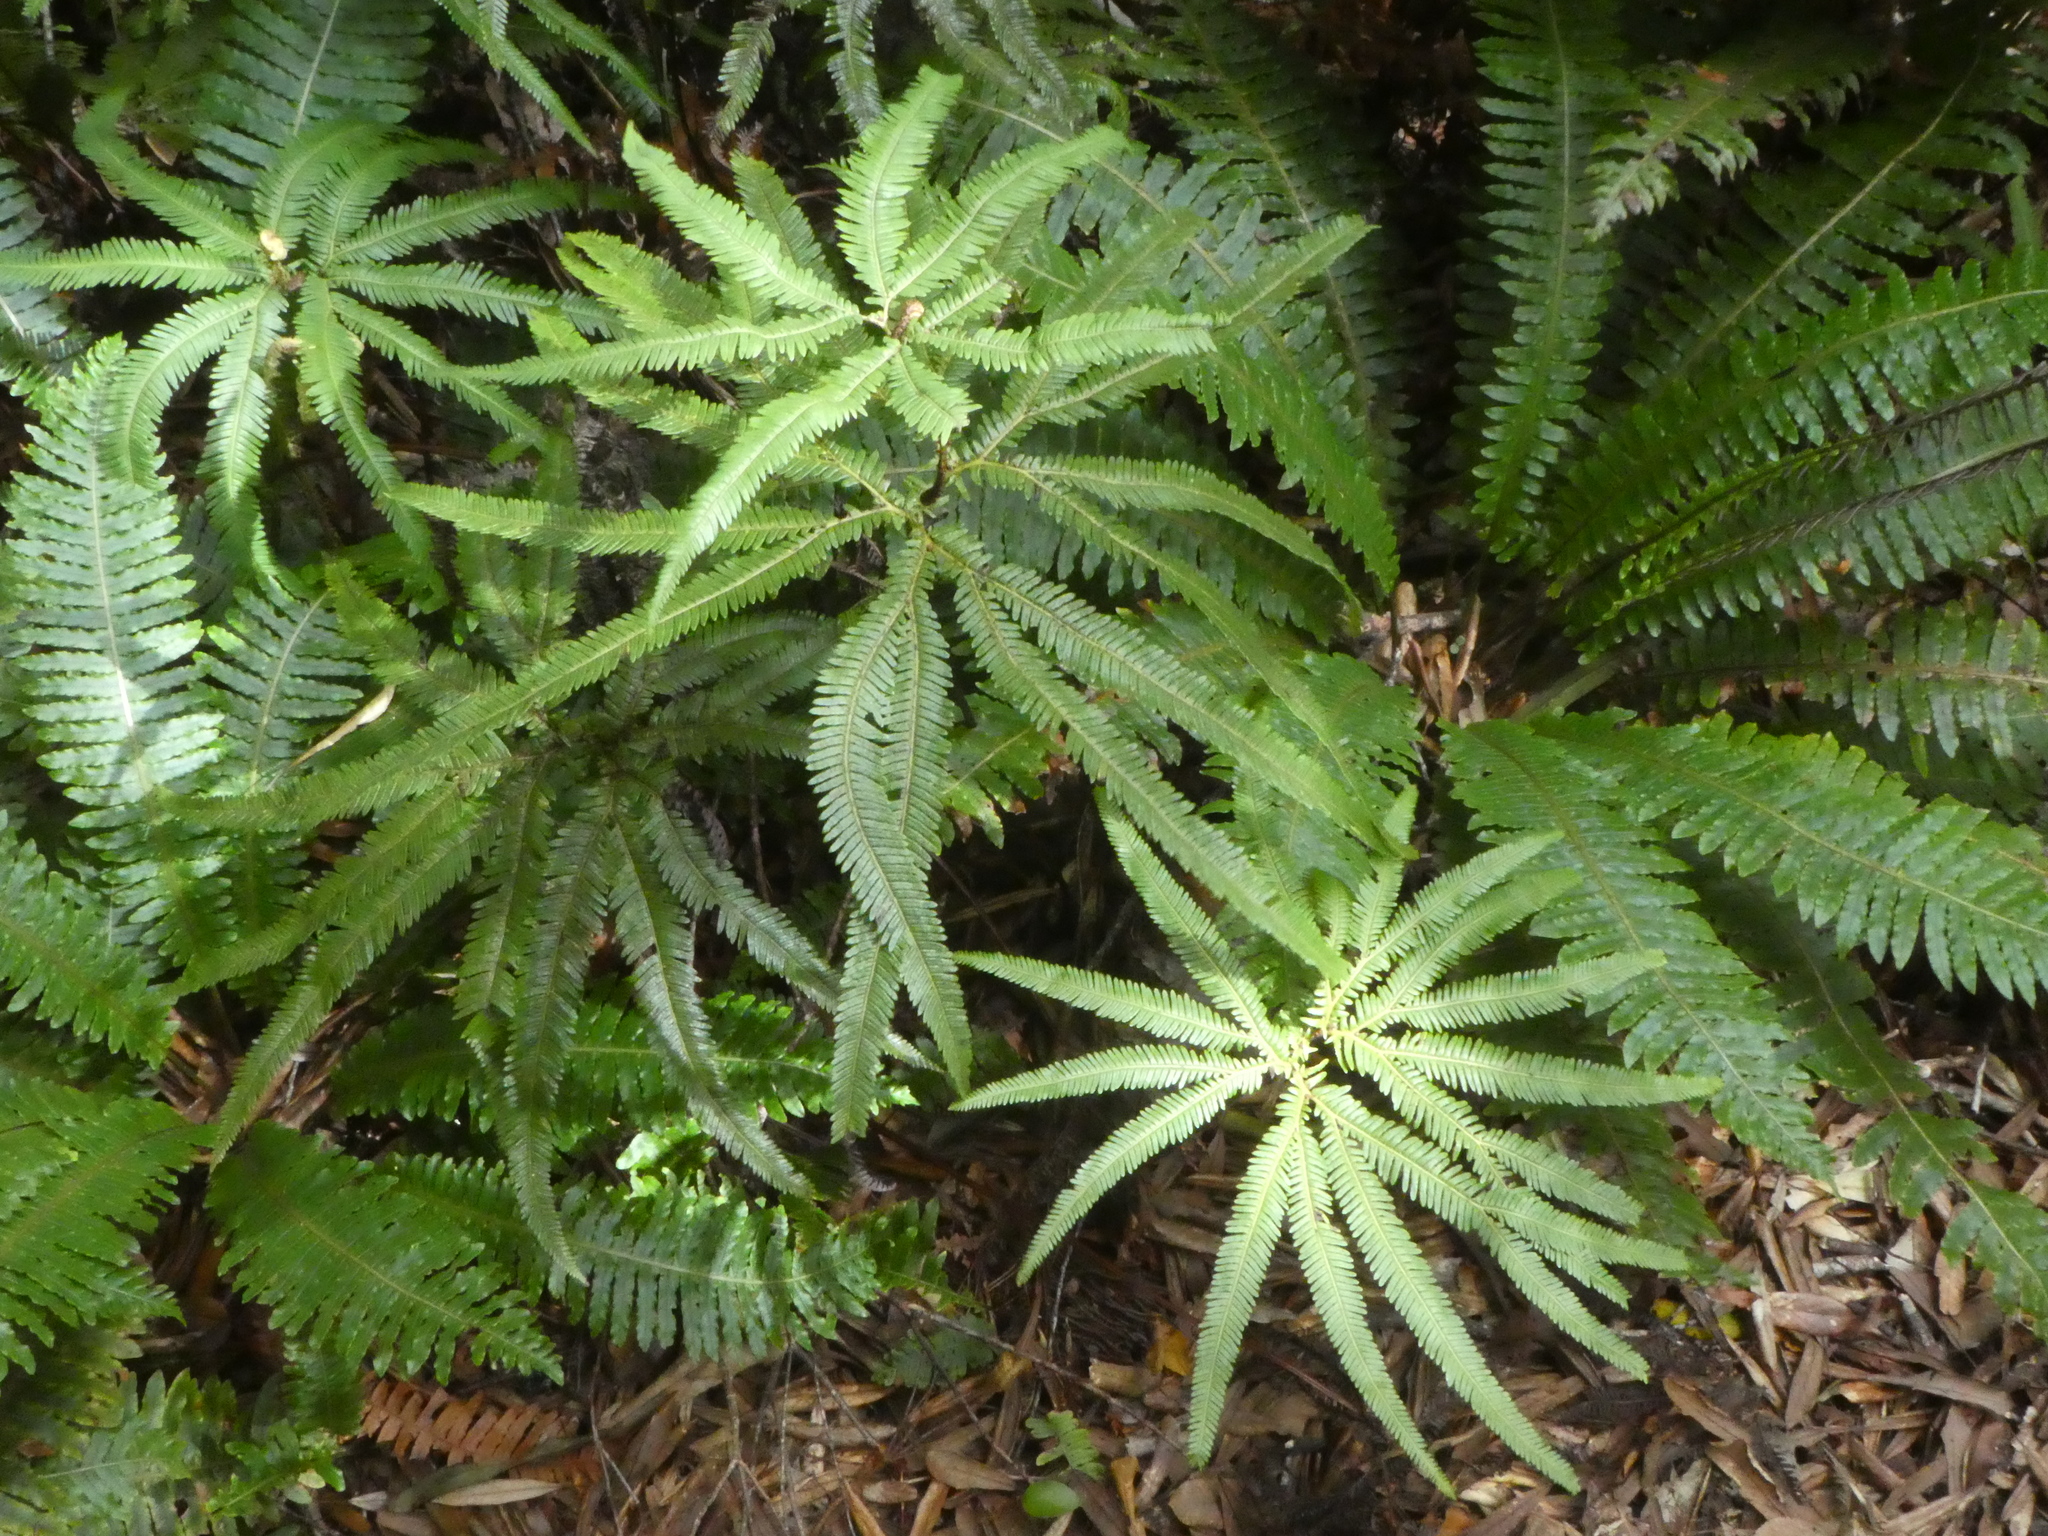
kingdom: Plantae
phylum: Tracheophyta
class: Polypodiopsida
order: Gleicheniales
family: Gleicheniaceae
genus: Sticherus
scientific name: Sticherus cunninghamii
